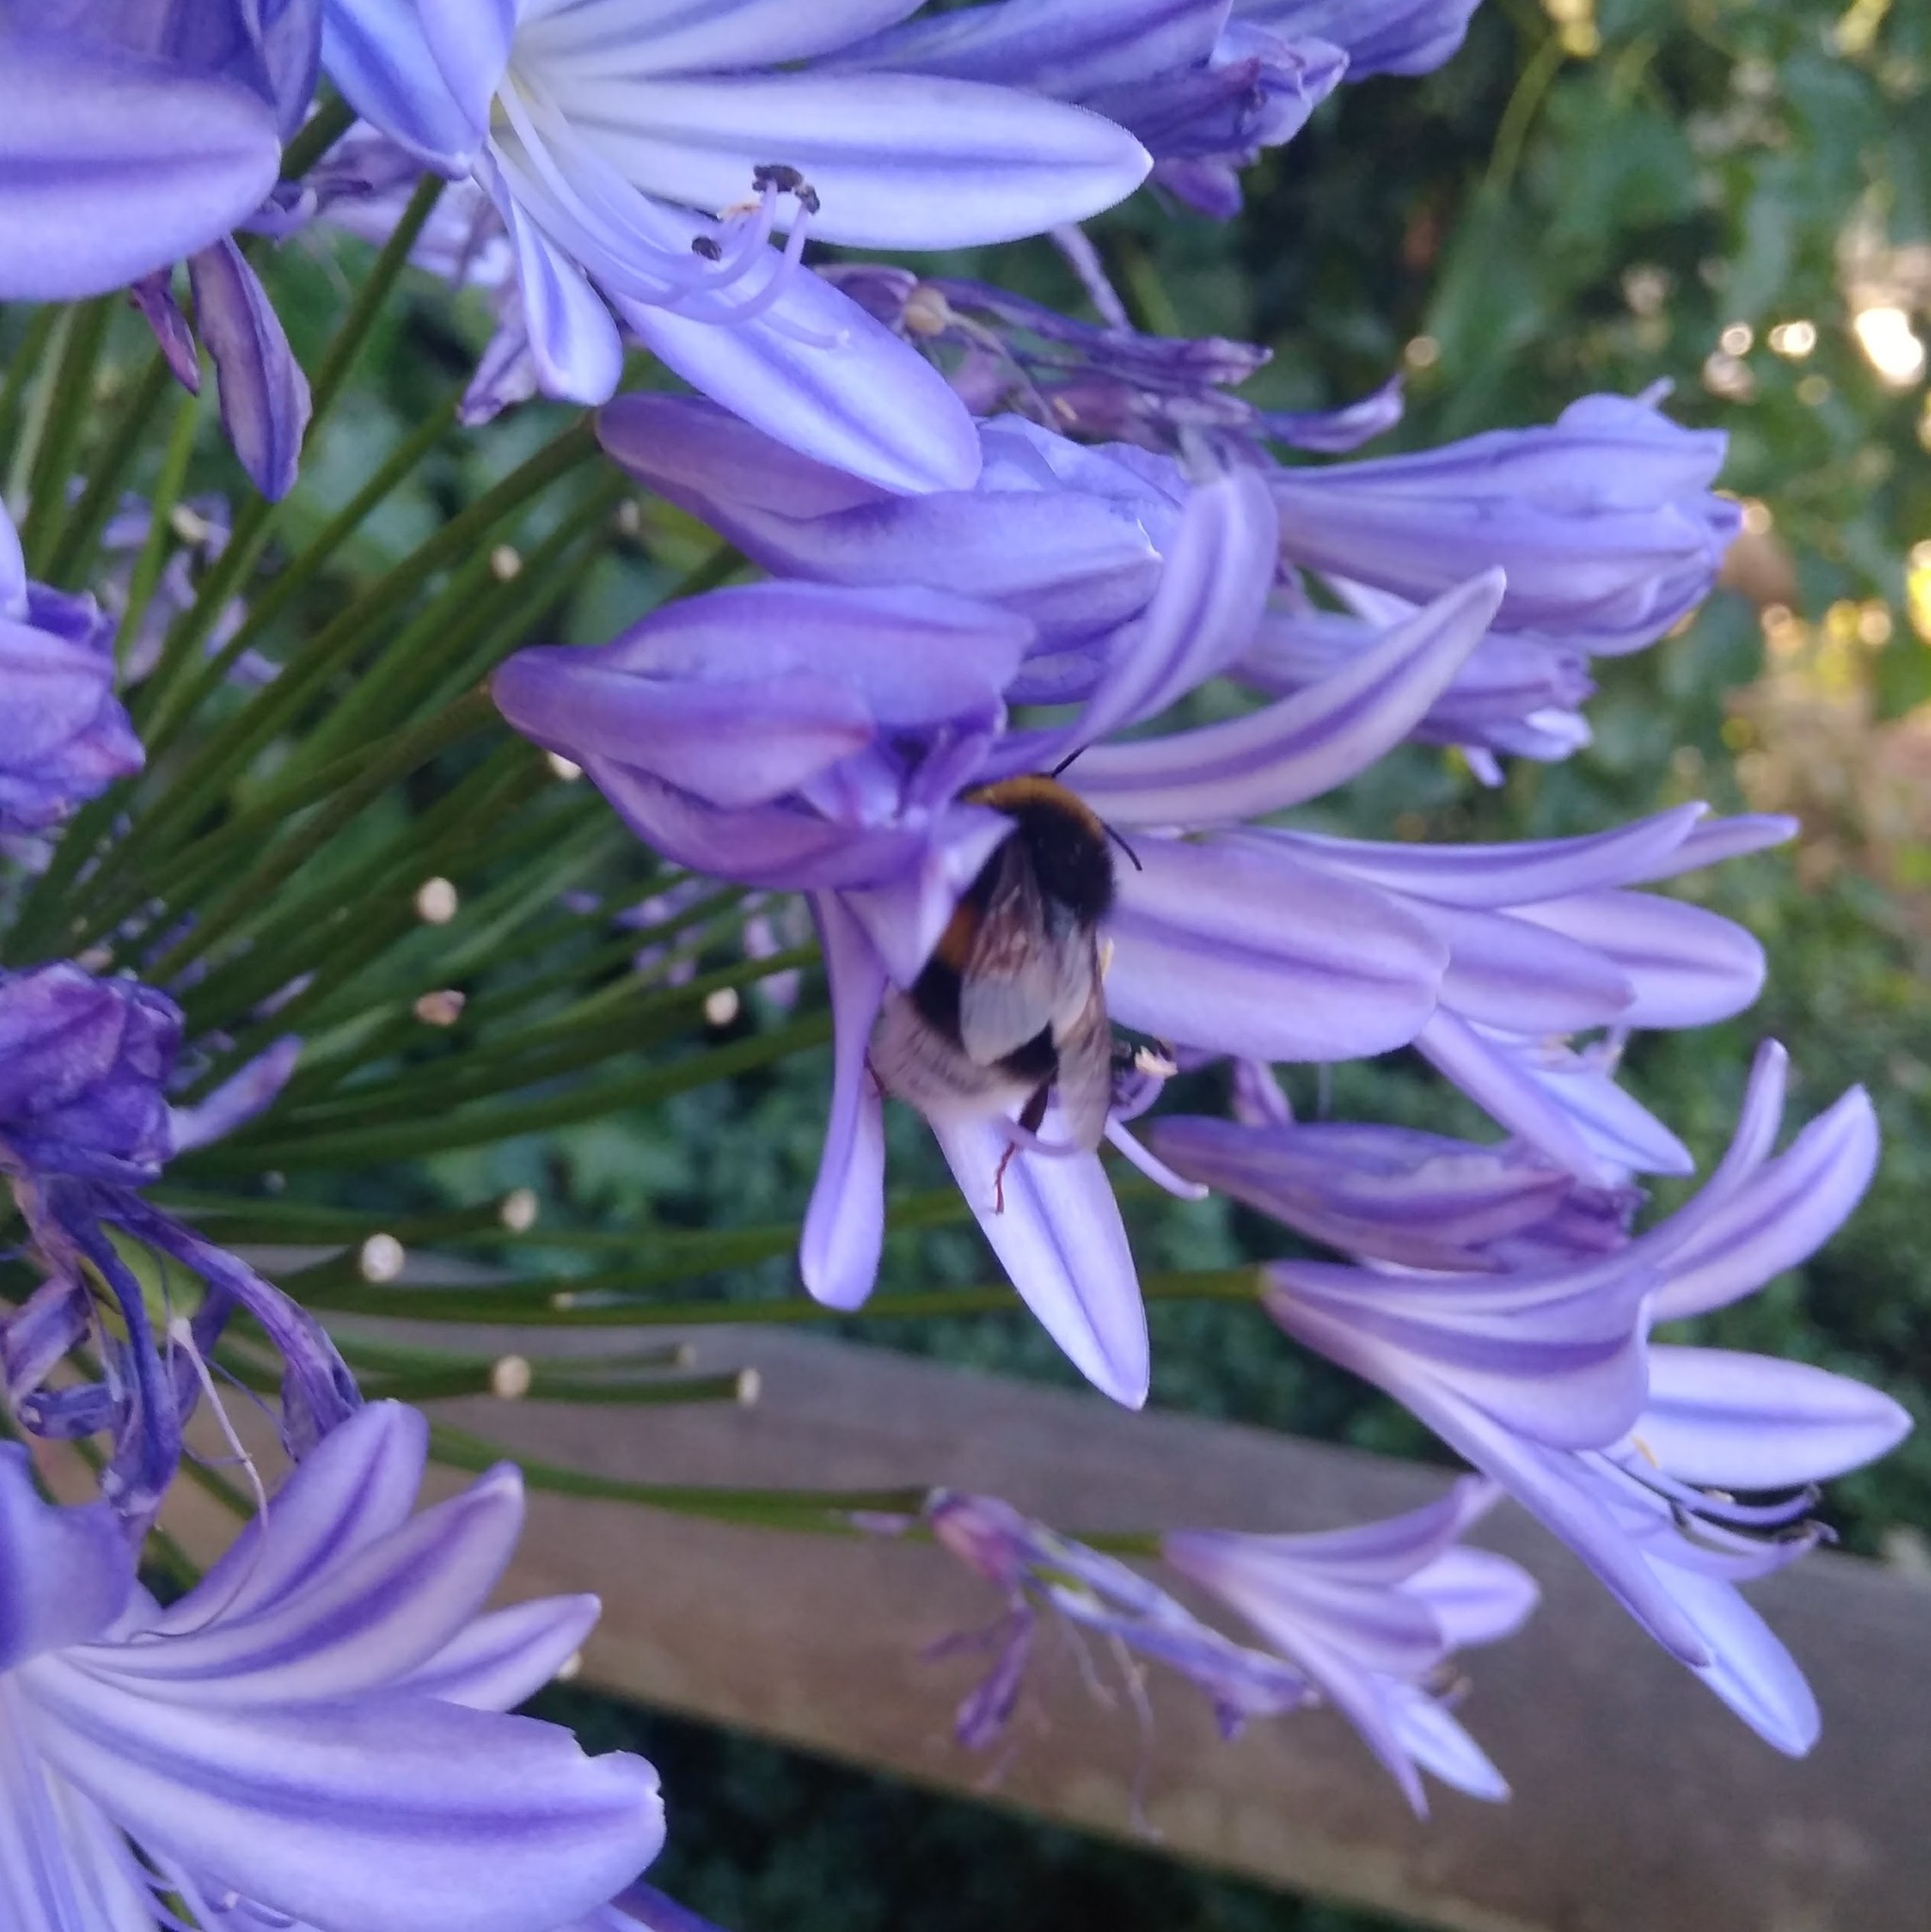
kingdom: Animalia
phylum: Arthropoda
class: Insecta
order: Hymenoptera
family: Apidae
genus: Bombus
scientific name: Bombus terrestris
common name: Buff-tailed bumblebee
